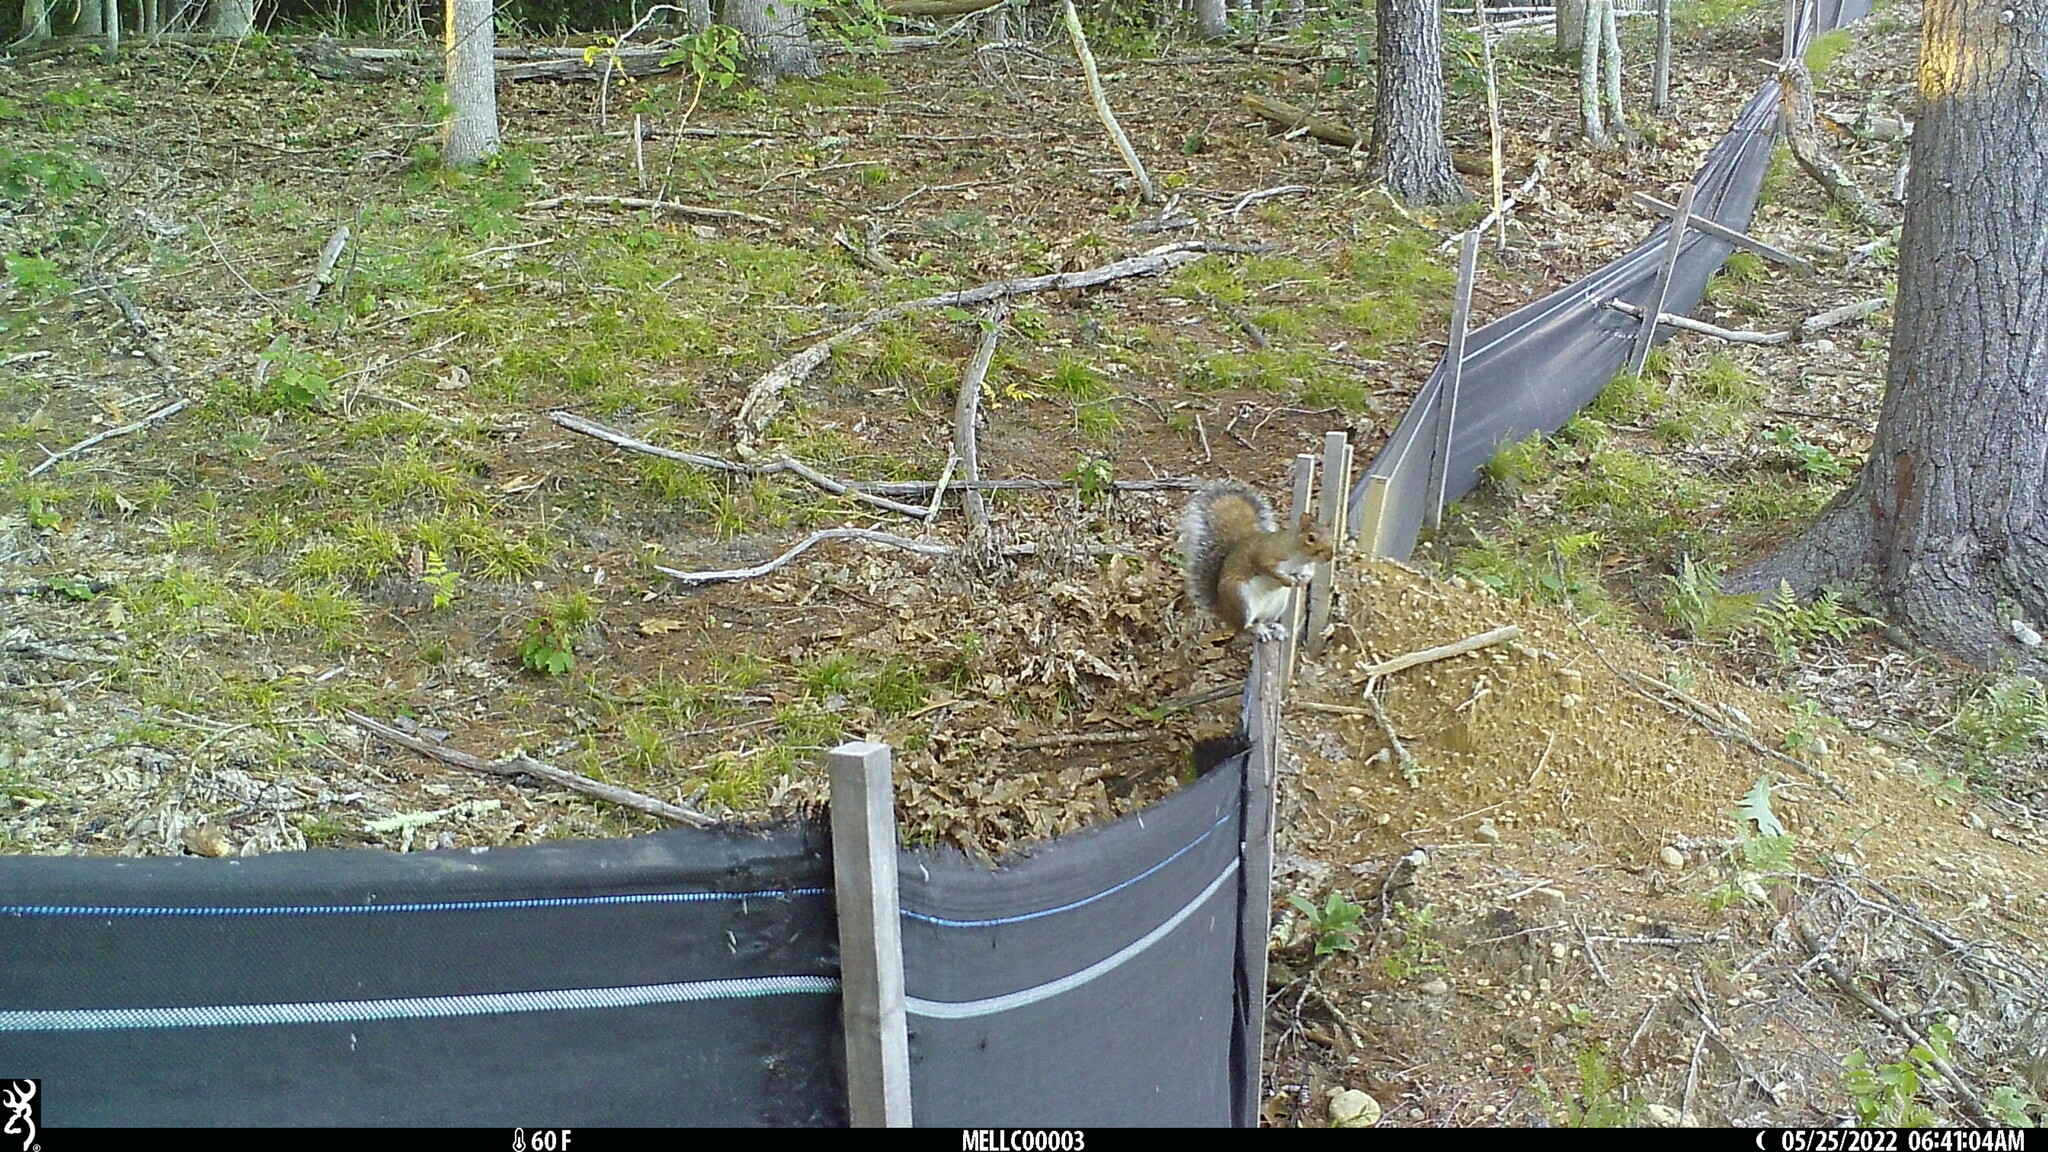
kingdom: Animalia
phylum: Chordata
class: Mammalia
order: Rodentia
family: Sciuridae
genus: Sciurus
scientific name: Sciurus carolinensis
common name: Eastern gray squirrel
